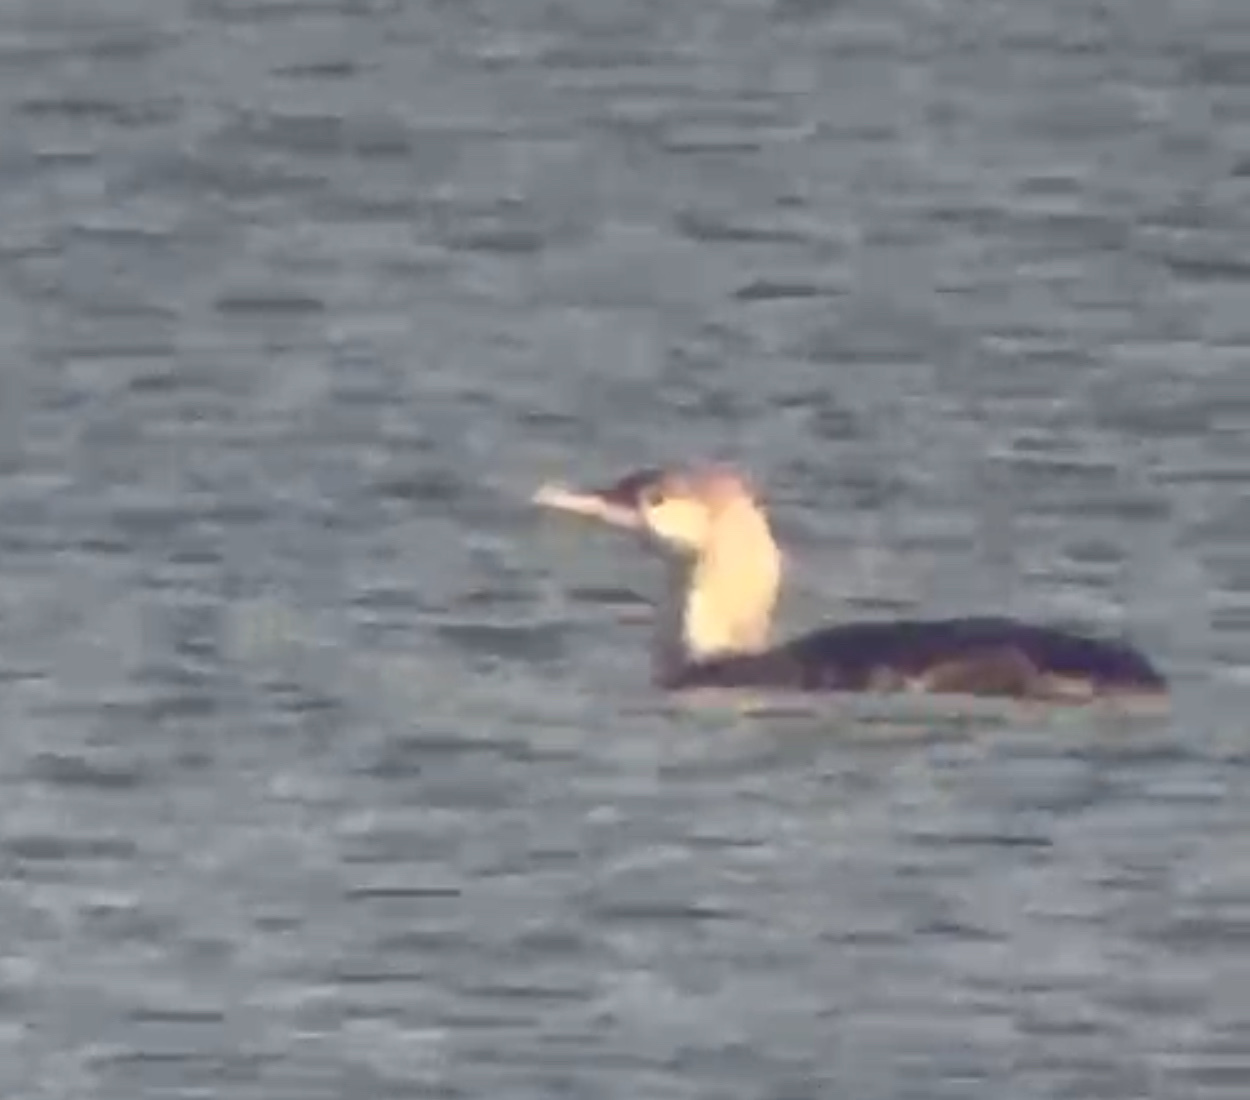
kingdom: Animalia
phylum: Chordata
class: Aves
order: Gaviiformes
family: Gaviidae
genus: Gavia
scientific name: Gavia stellata
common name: Red-throated loon
